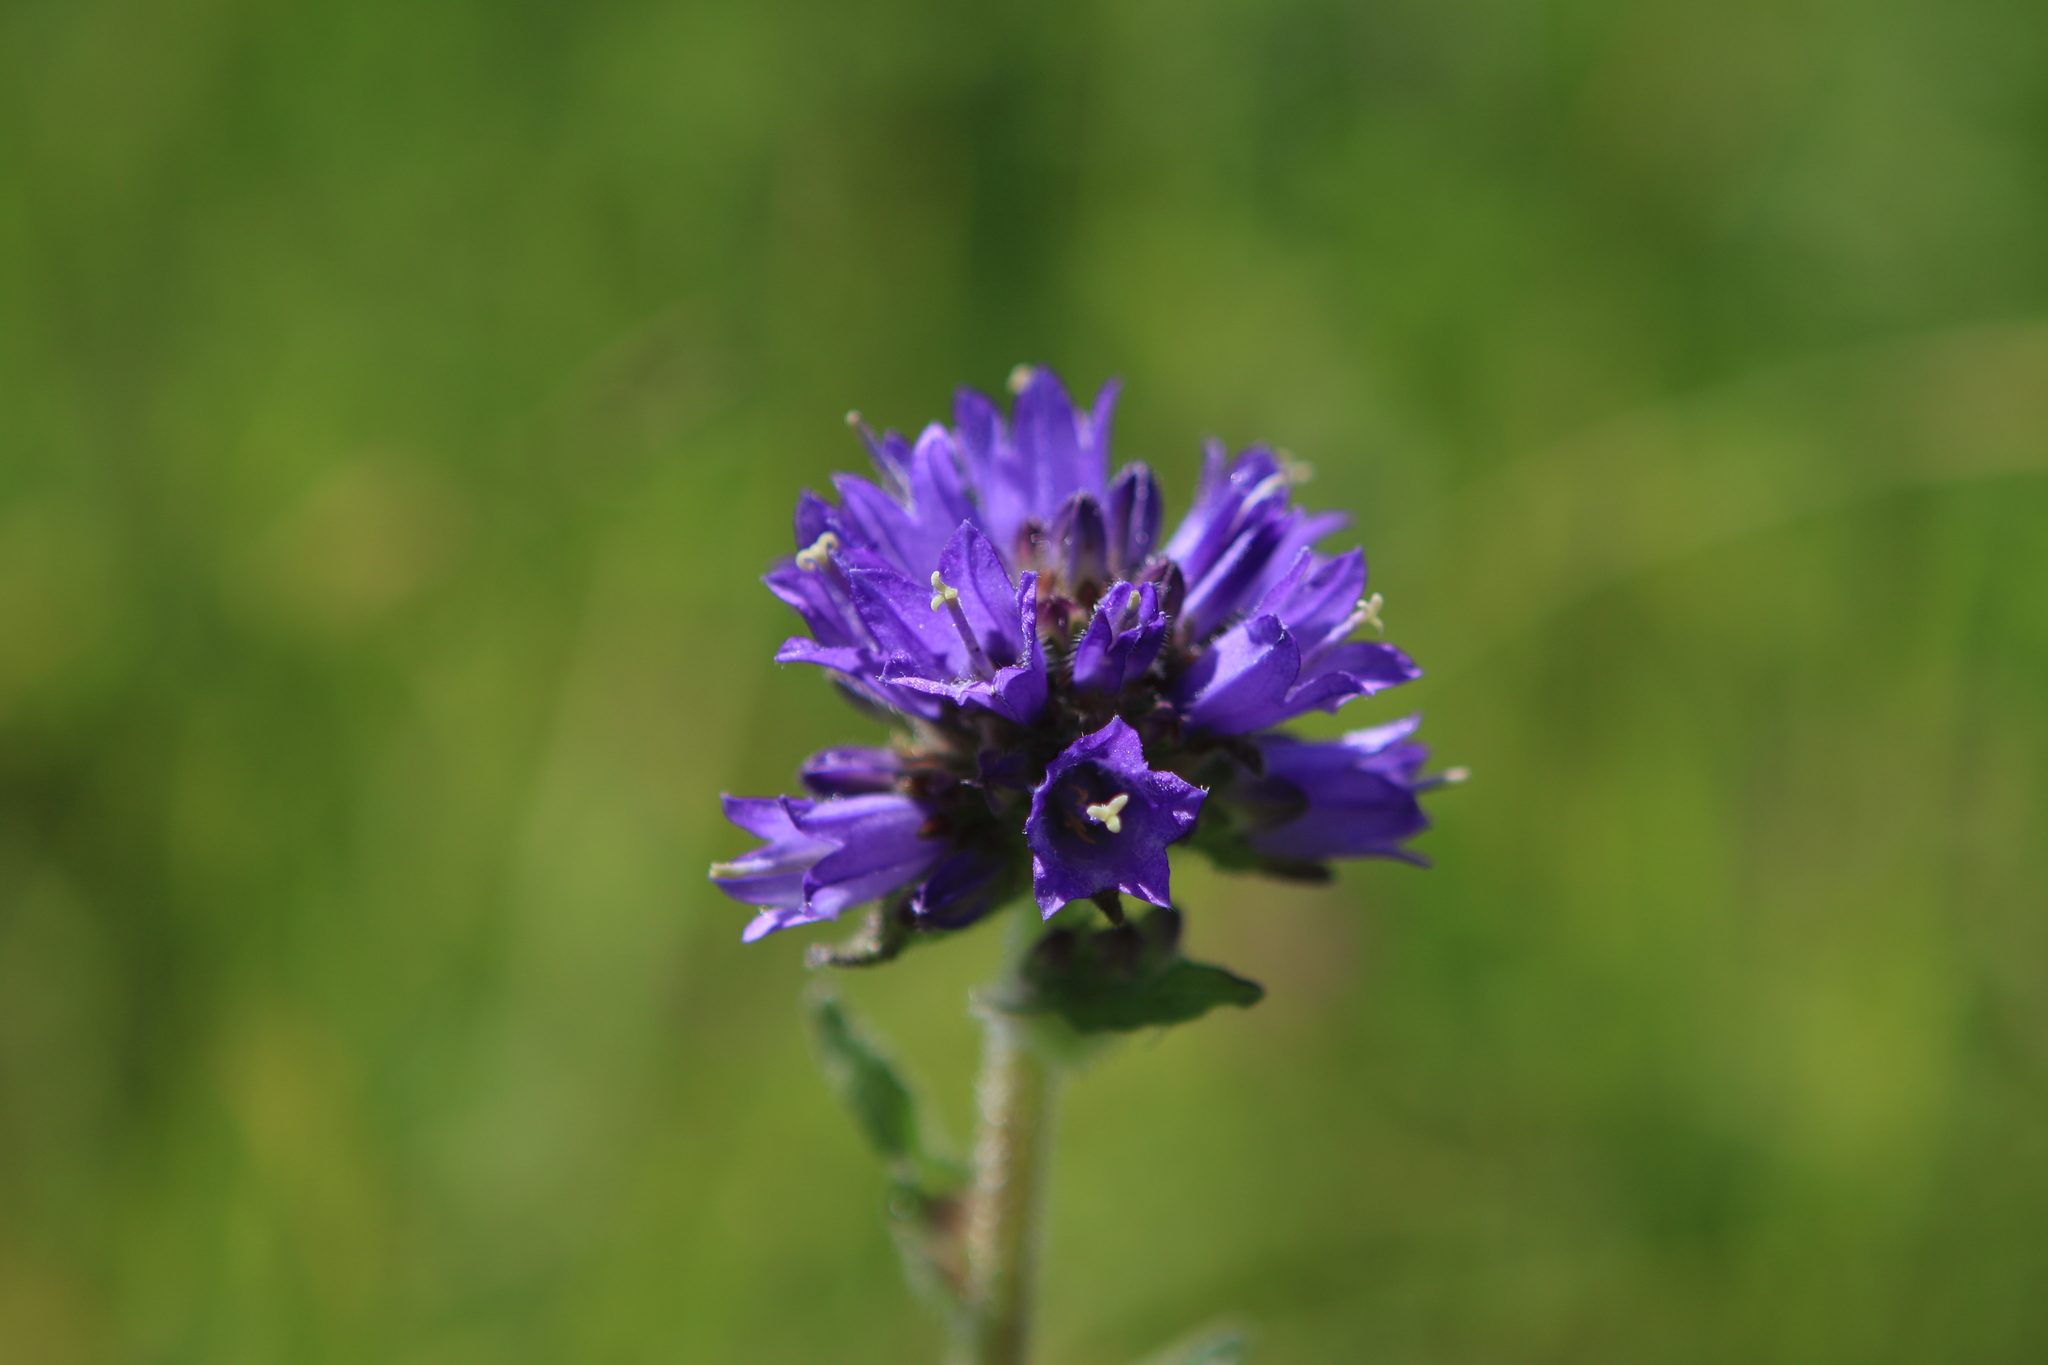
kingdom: Plantae
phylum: Tracheophyta
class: Magnoliopsida
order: Asterales
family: Campanulaceae
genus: Campanula
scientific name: Campanula glomerata
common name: Clustered bellflower
